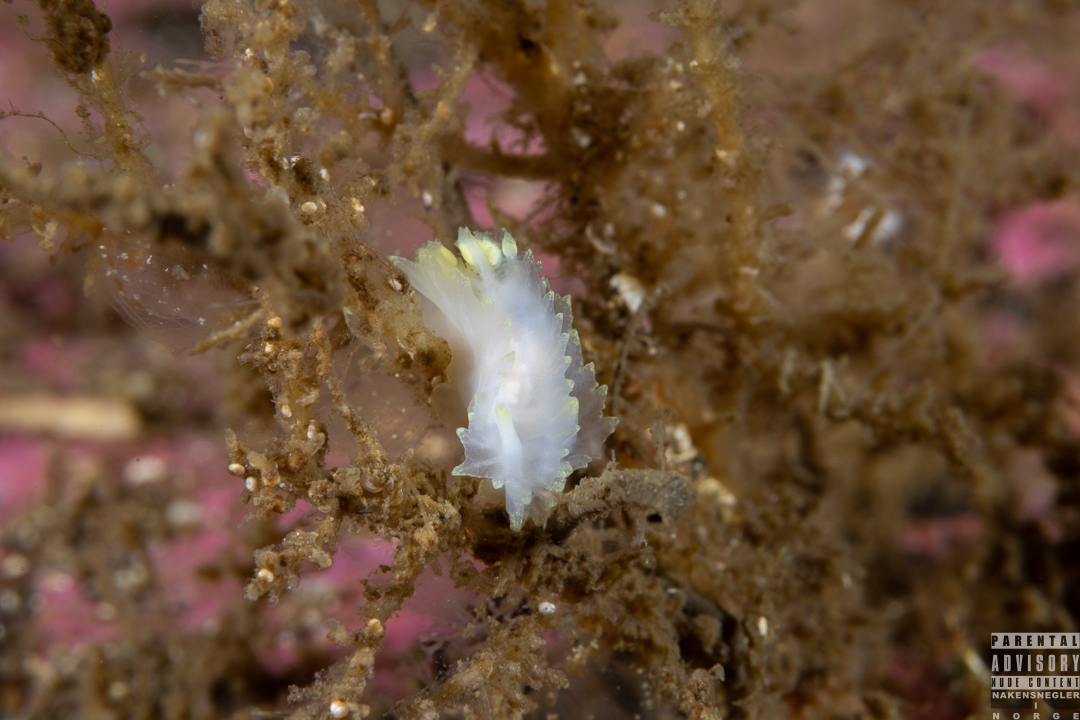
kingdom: Animalia
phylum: Mollusca
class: Gastropoda
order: Nudibranchia
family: Goniodorididae
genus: Lophodoris
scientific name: Lophodoris danielsseni
